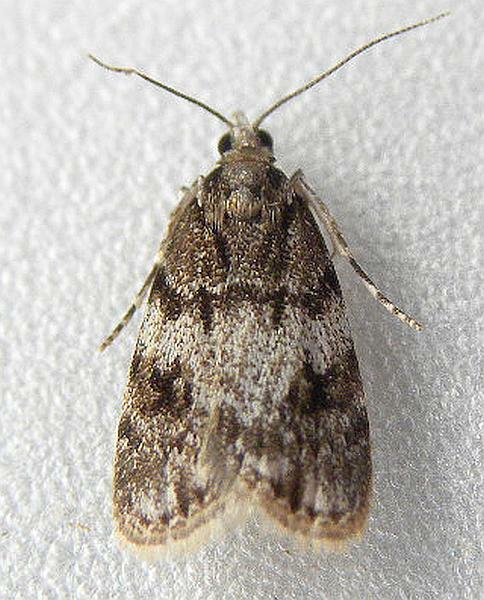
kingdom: Animalia
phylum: Arthropoda
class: Insecta
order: Lepidoptera
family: Crambidae
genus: Scoparia
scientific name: Scoparia cinereomedia
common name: Sooty scoparia moth
